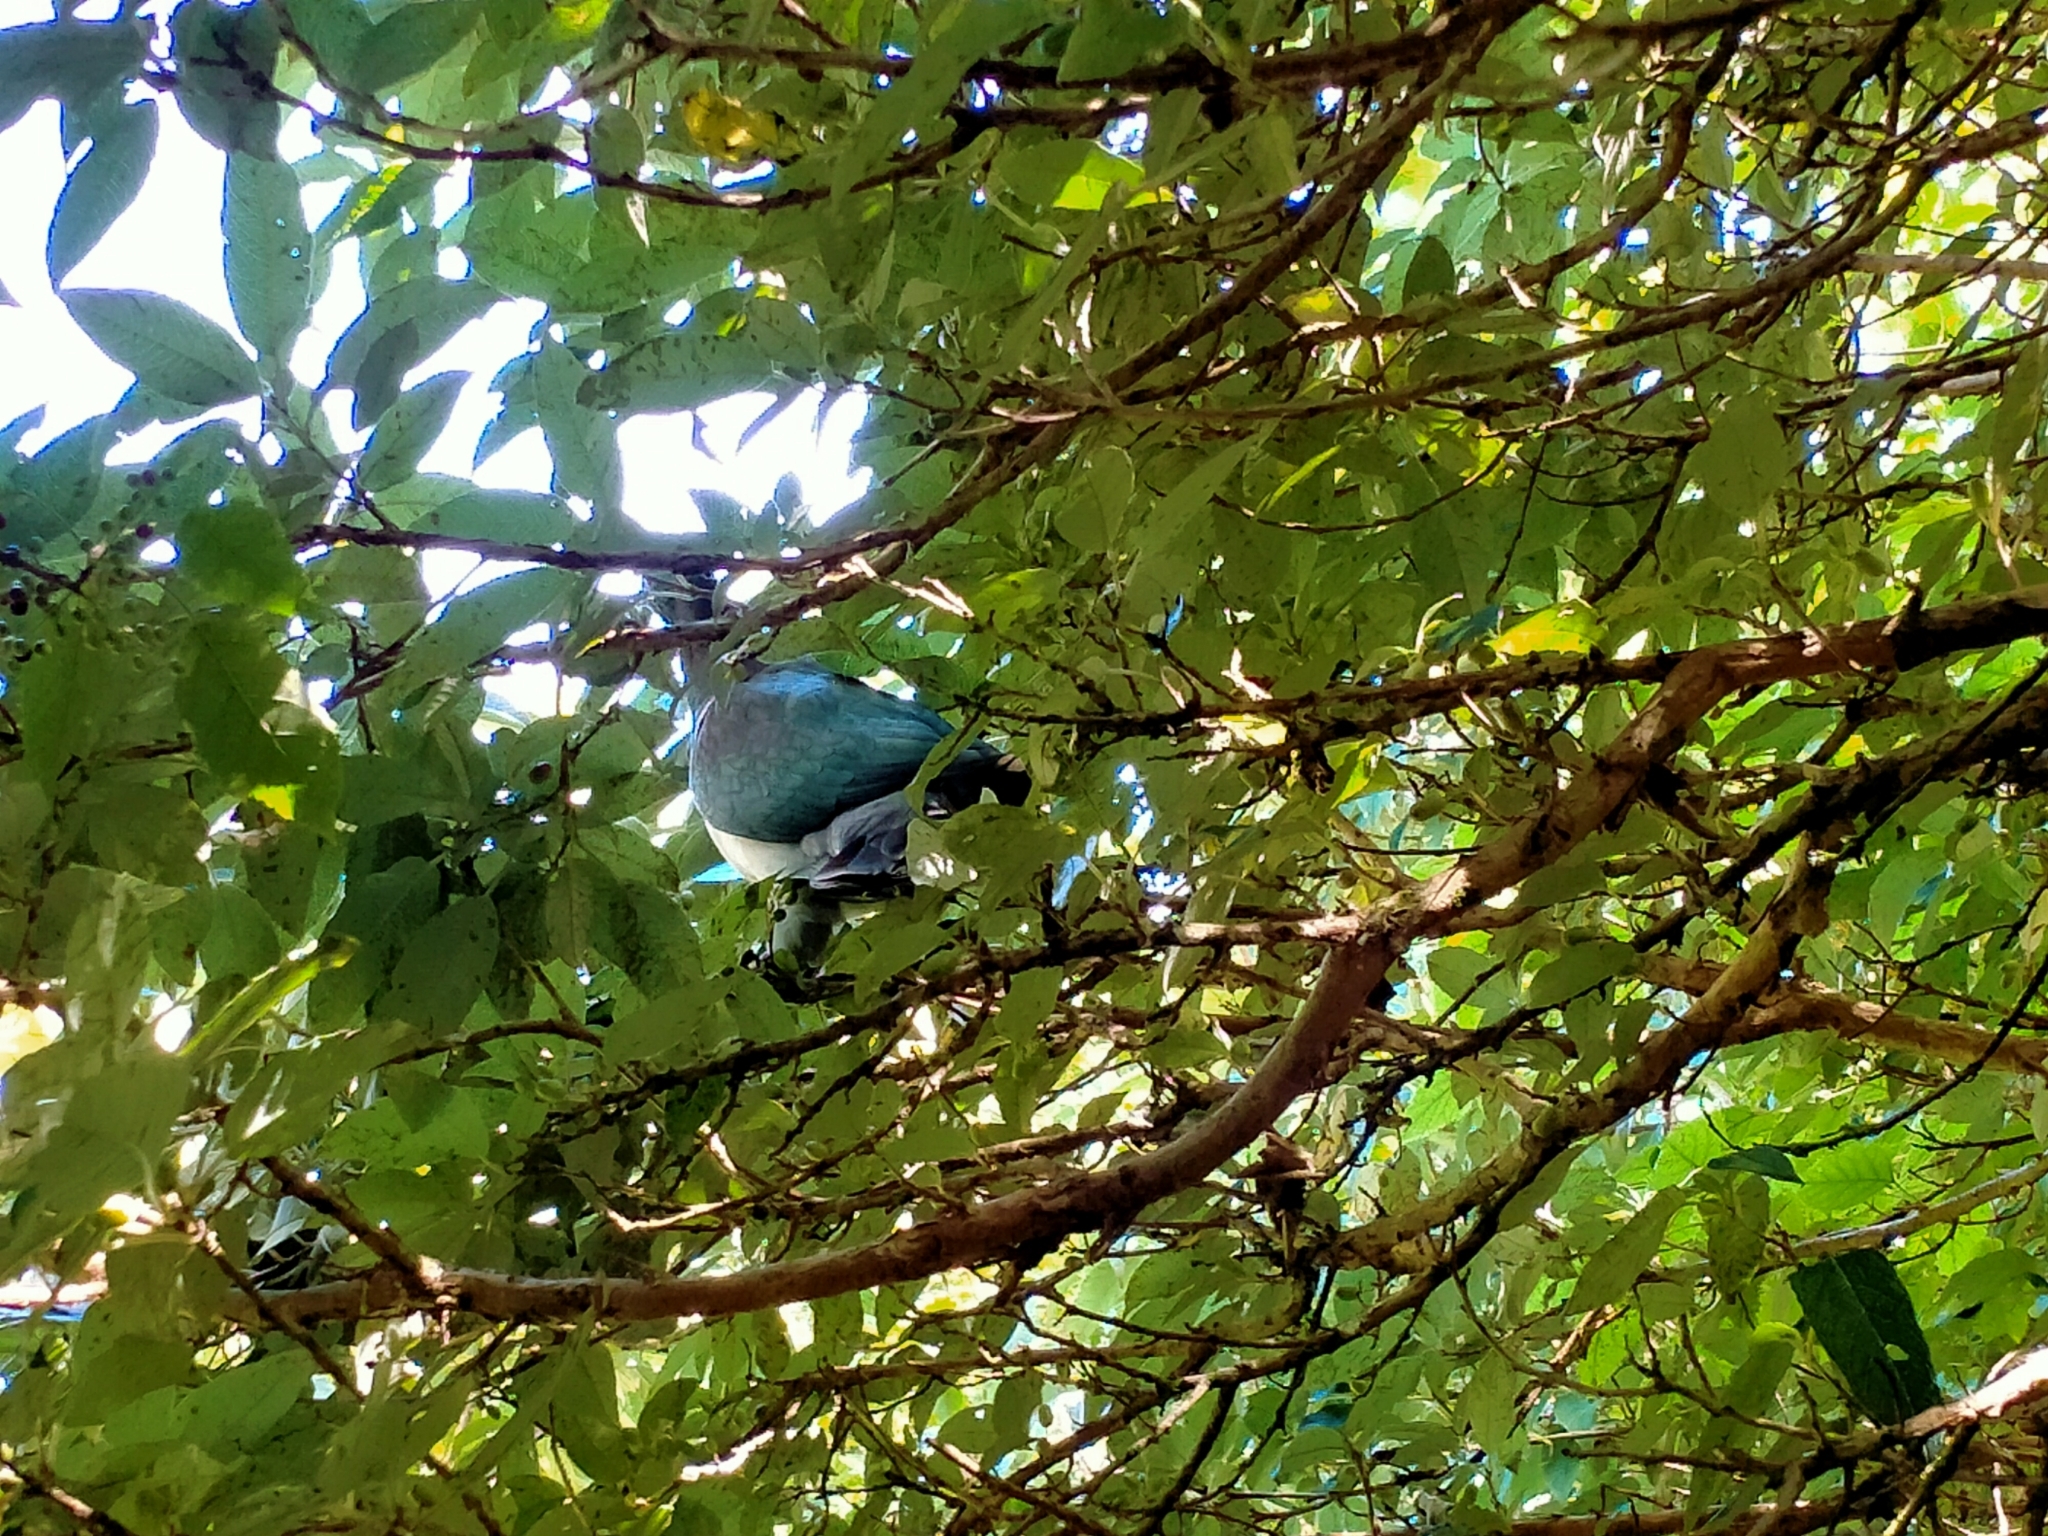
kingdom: Animalia
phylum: Chordata
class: Aves
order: Columbiformes
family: Columbidae
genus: Hemiphaga
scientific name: Hemiphaga novaeseelandiae
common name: New zealand pigeon
